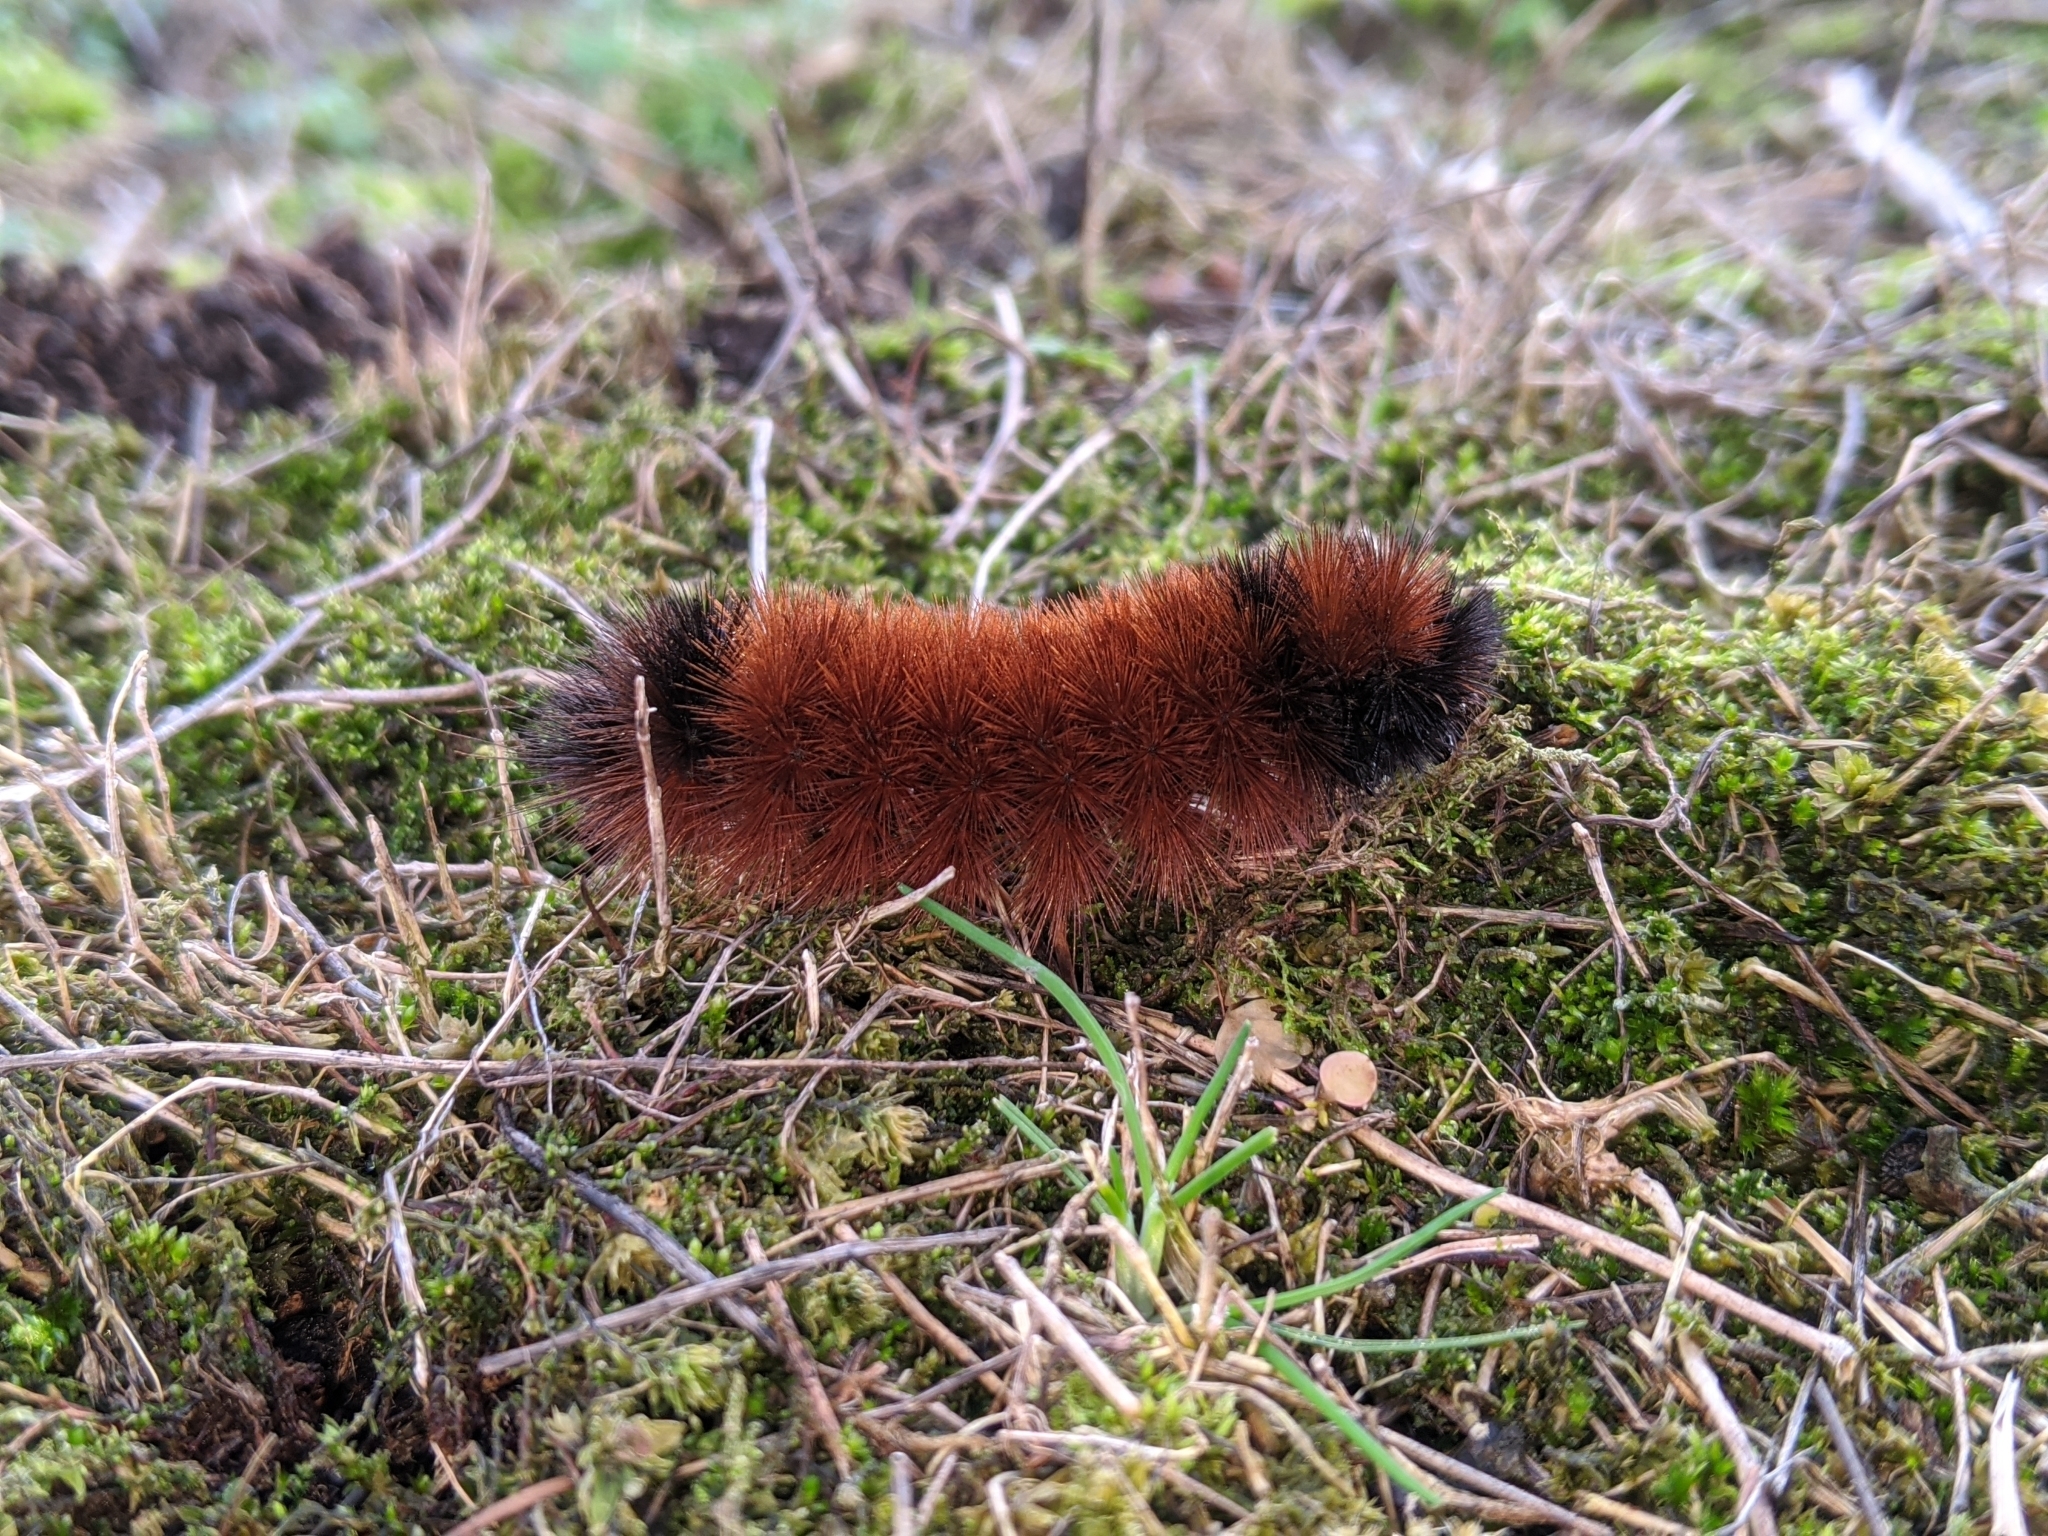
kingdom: Animalia
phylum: Arthropoda
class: Insecta
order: Lepidoptera
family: Erebidae
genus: Pyrrharctia
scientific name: Pyrrharctia isabella
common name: Isabella tiger moth
